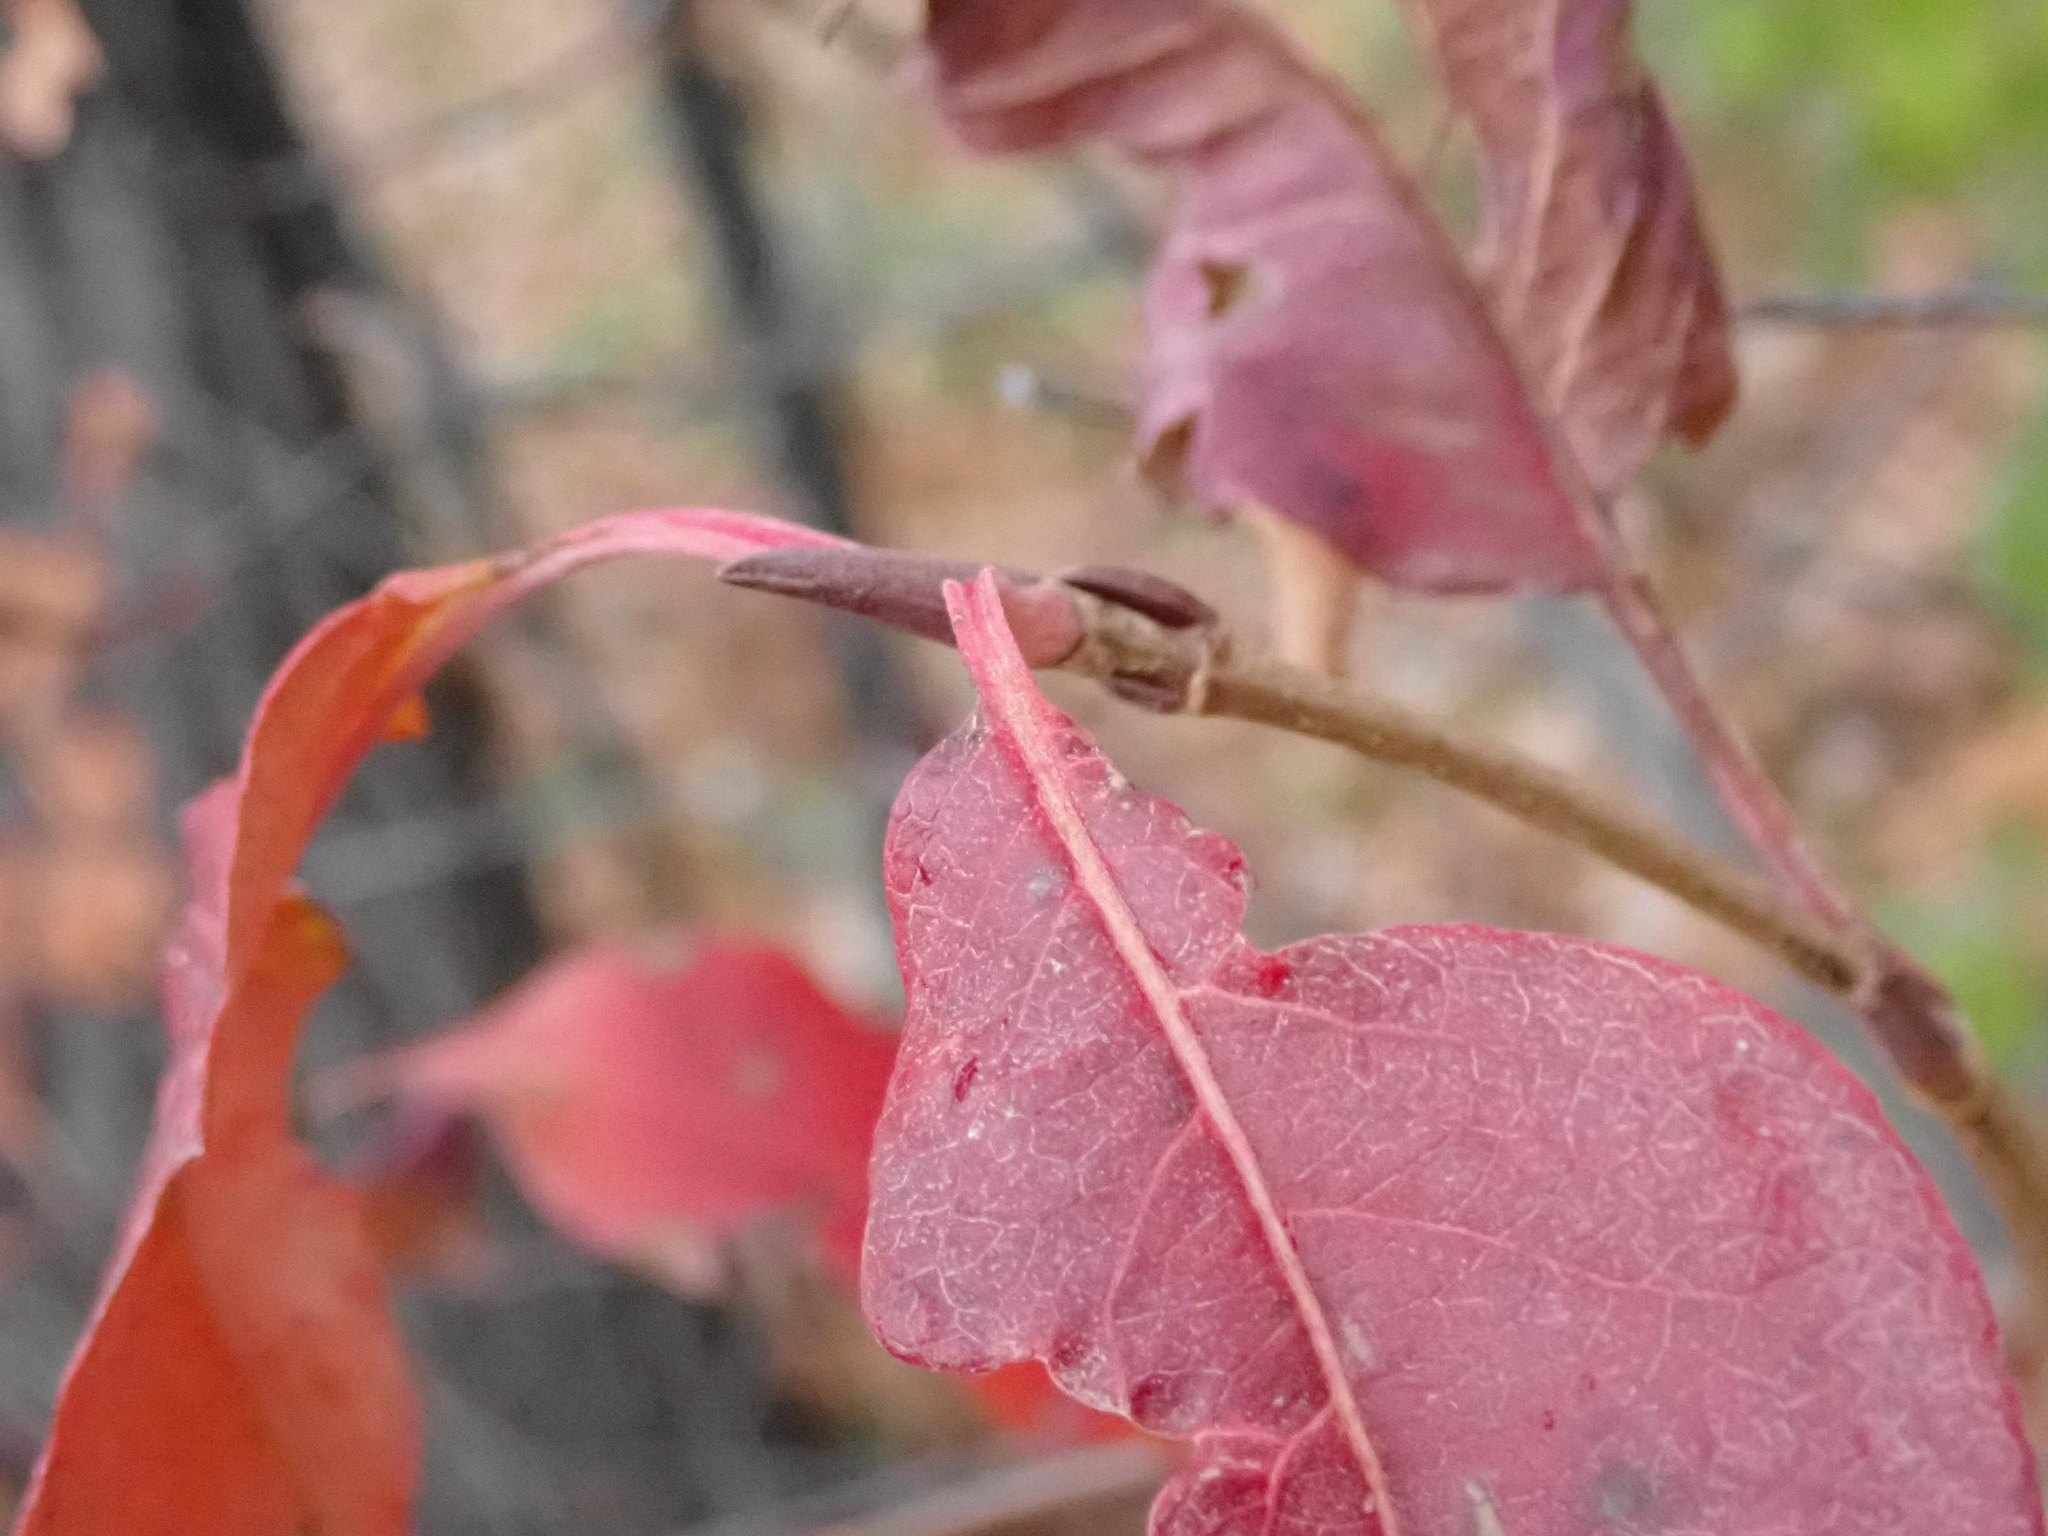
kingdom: Plantae
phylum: Tracheophyta
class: Magnoliopsida
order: Dipsacales
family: Viburnaceae
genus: Viburnum
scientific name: Viburnum lentago
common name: Black haw
